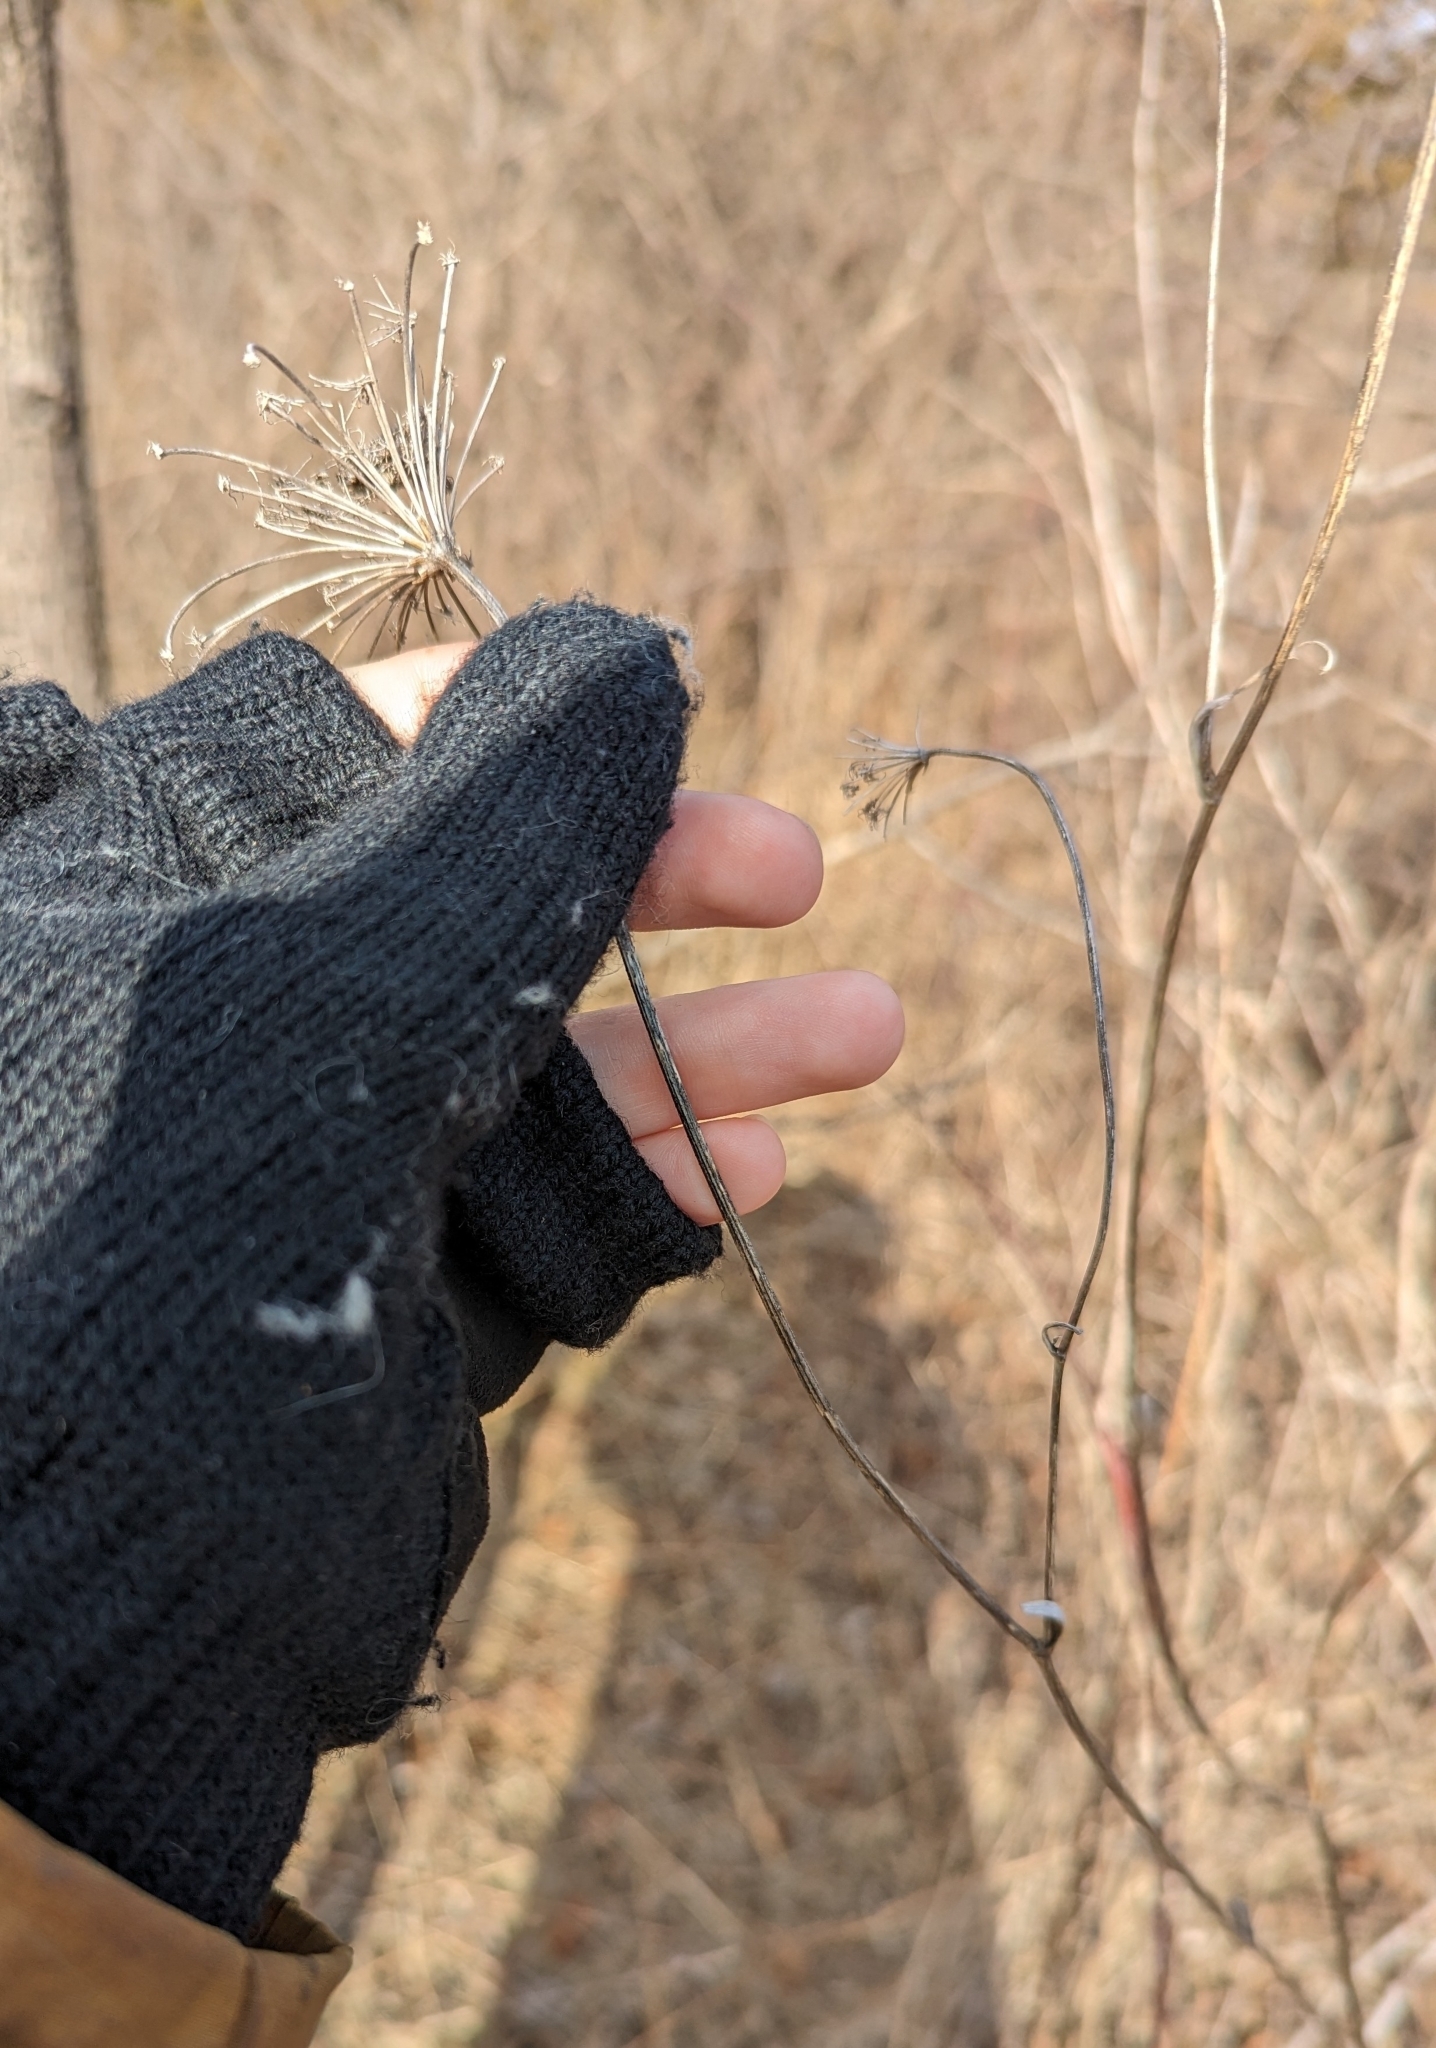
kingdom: Plantae
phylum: Tracheophyta
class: Magnoliopsida
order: Apiales
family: Apiaceae
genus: Pastinaca
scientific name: Pastinaca sativa
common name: Wild parsnip
